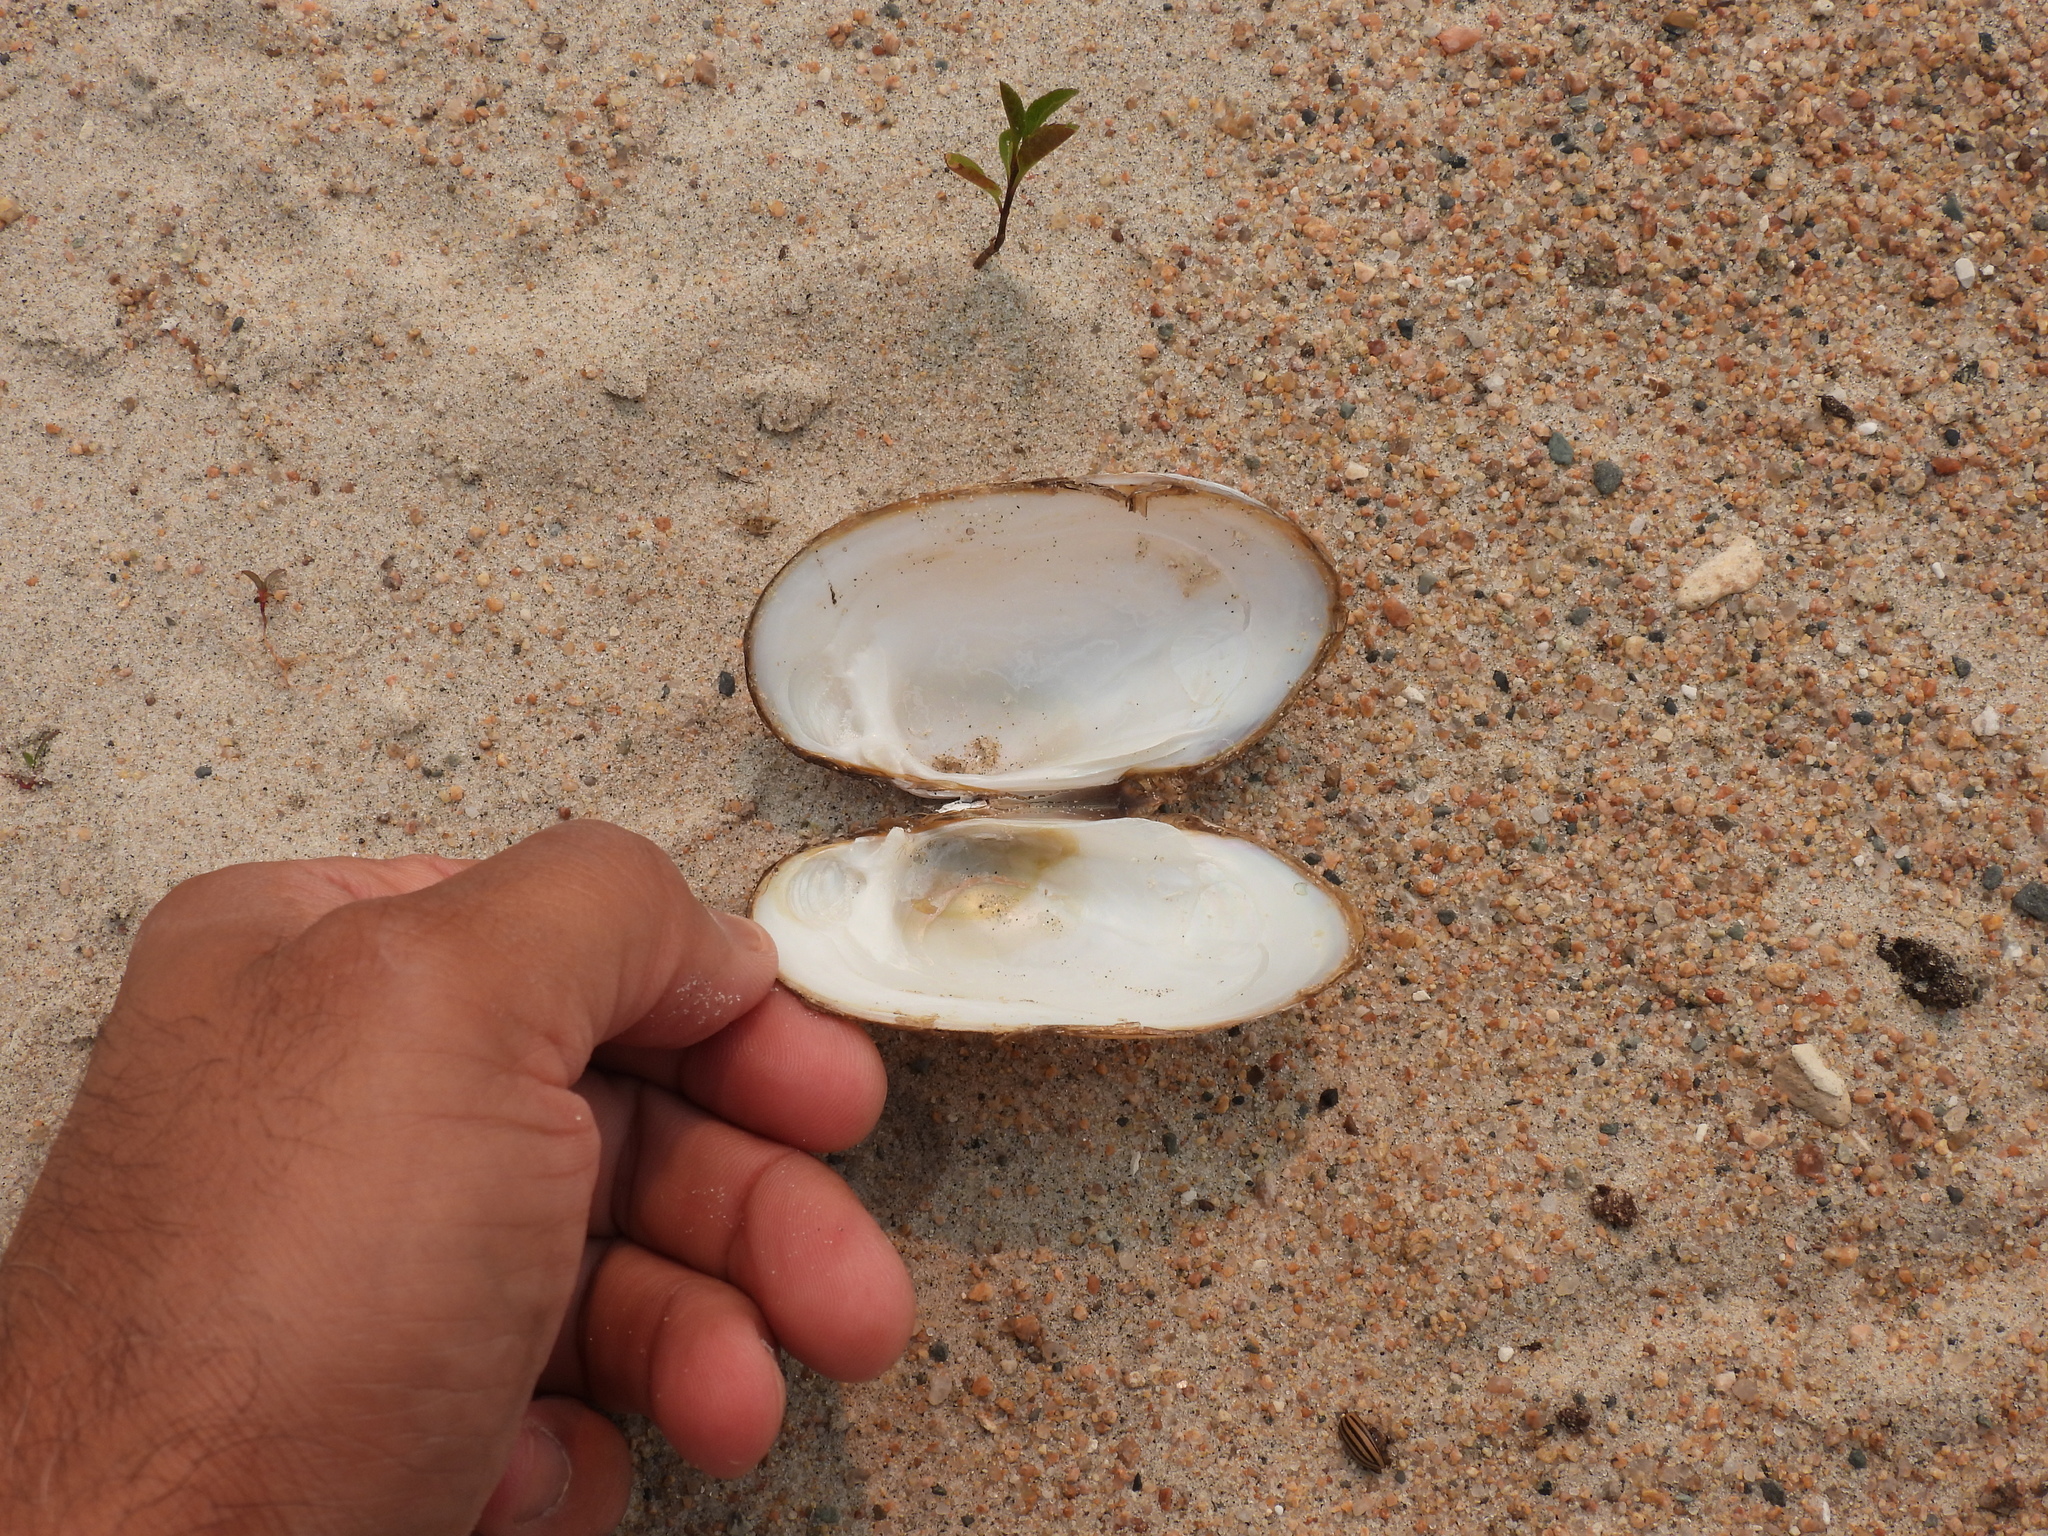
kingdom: Animalia
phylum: Mollusca
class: Bivalvia
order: Unionida
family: Unionidae
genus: Lampsilis
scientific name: Lampsilis siliquoidea
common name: Fatmucket
